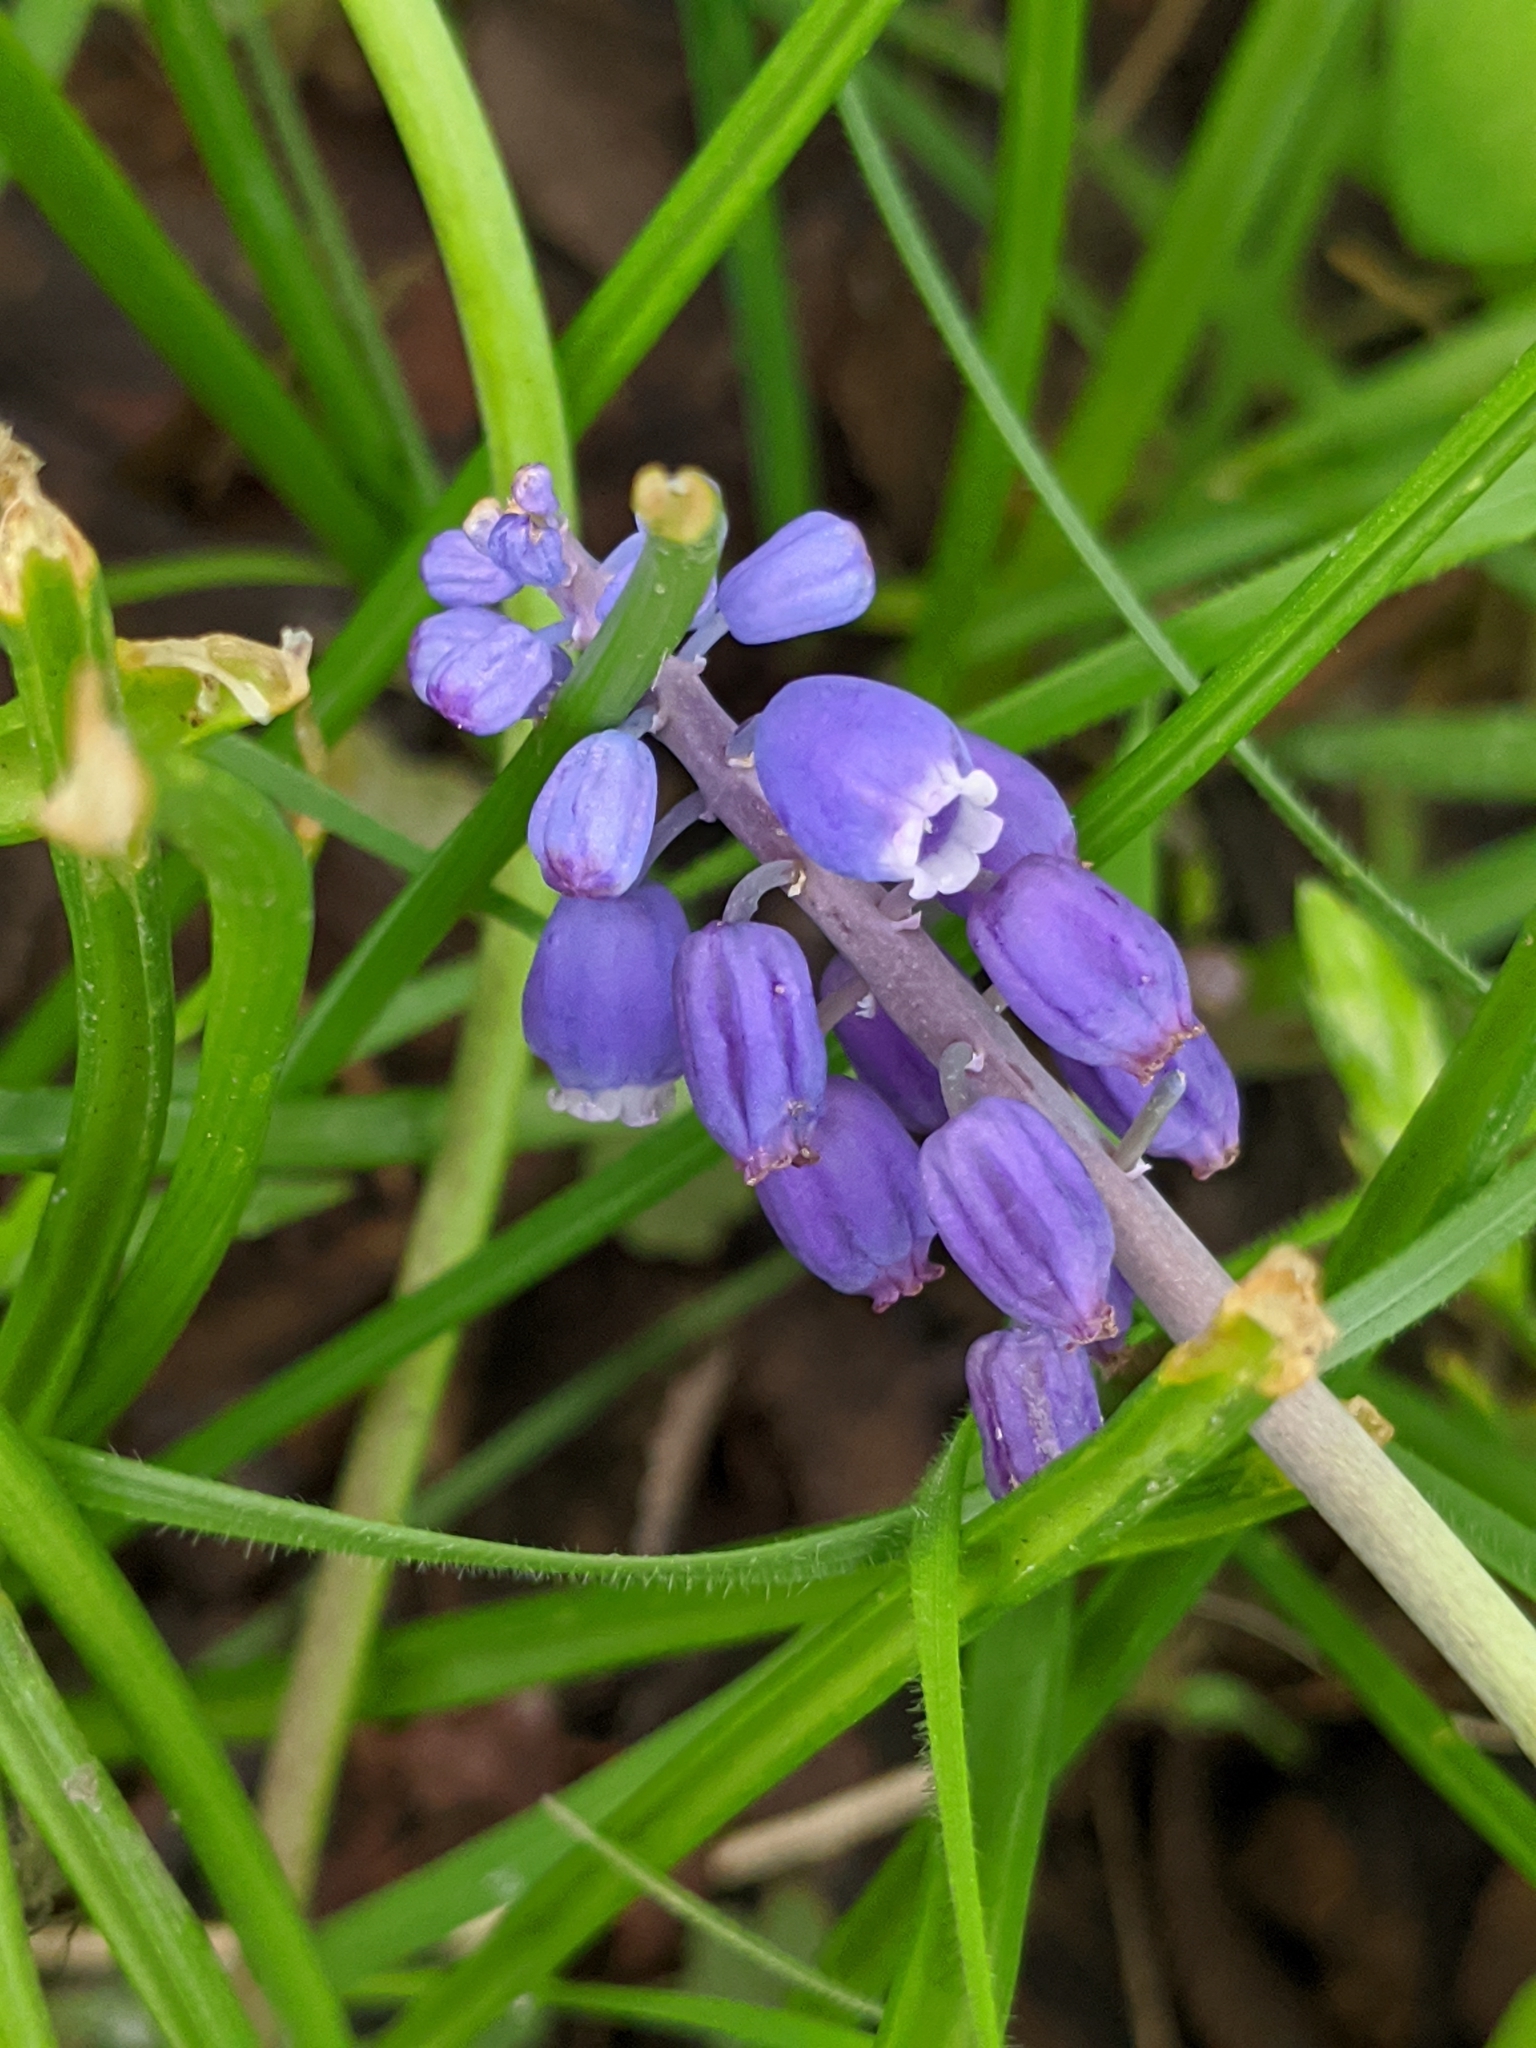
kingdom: Plantae
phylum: Tracheophyta
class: Liliopsida
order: Asparagales
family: Asparagaceae
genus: Muscari
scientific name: Muscari neglectum
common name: Grape-hyacinth
